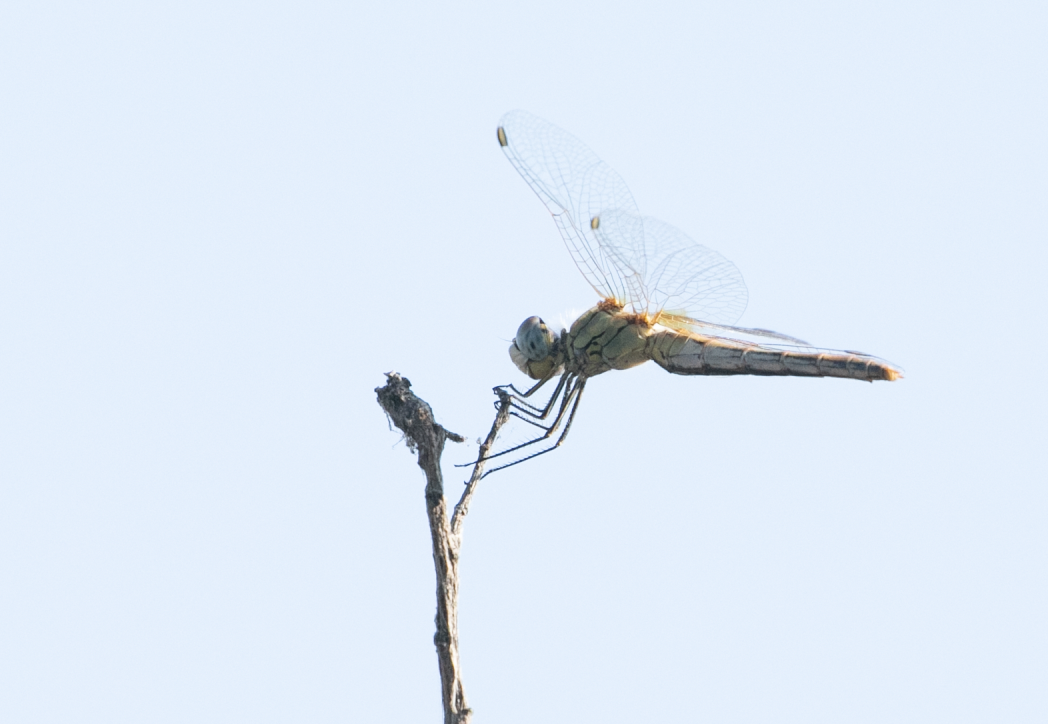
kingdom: Animalia
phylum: Arthropoda
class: Insecta
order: Odonata
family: Libellulidae
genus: Sympetrum
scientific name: Sympetrum fonscolombii
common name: Red-veined darter
